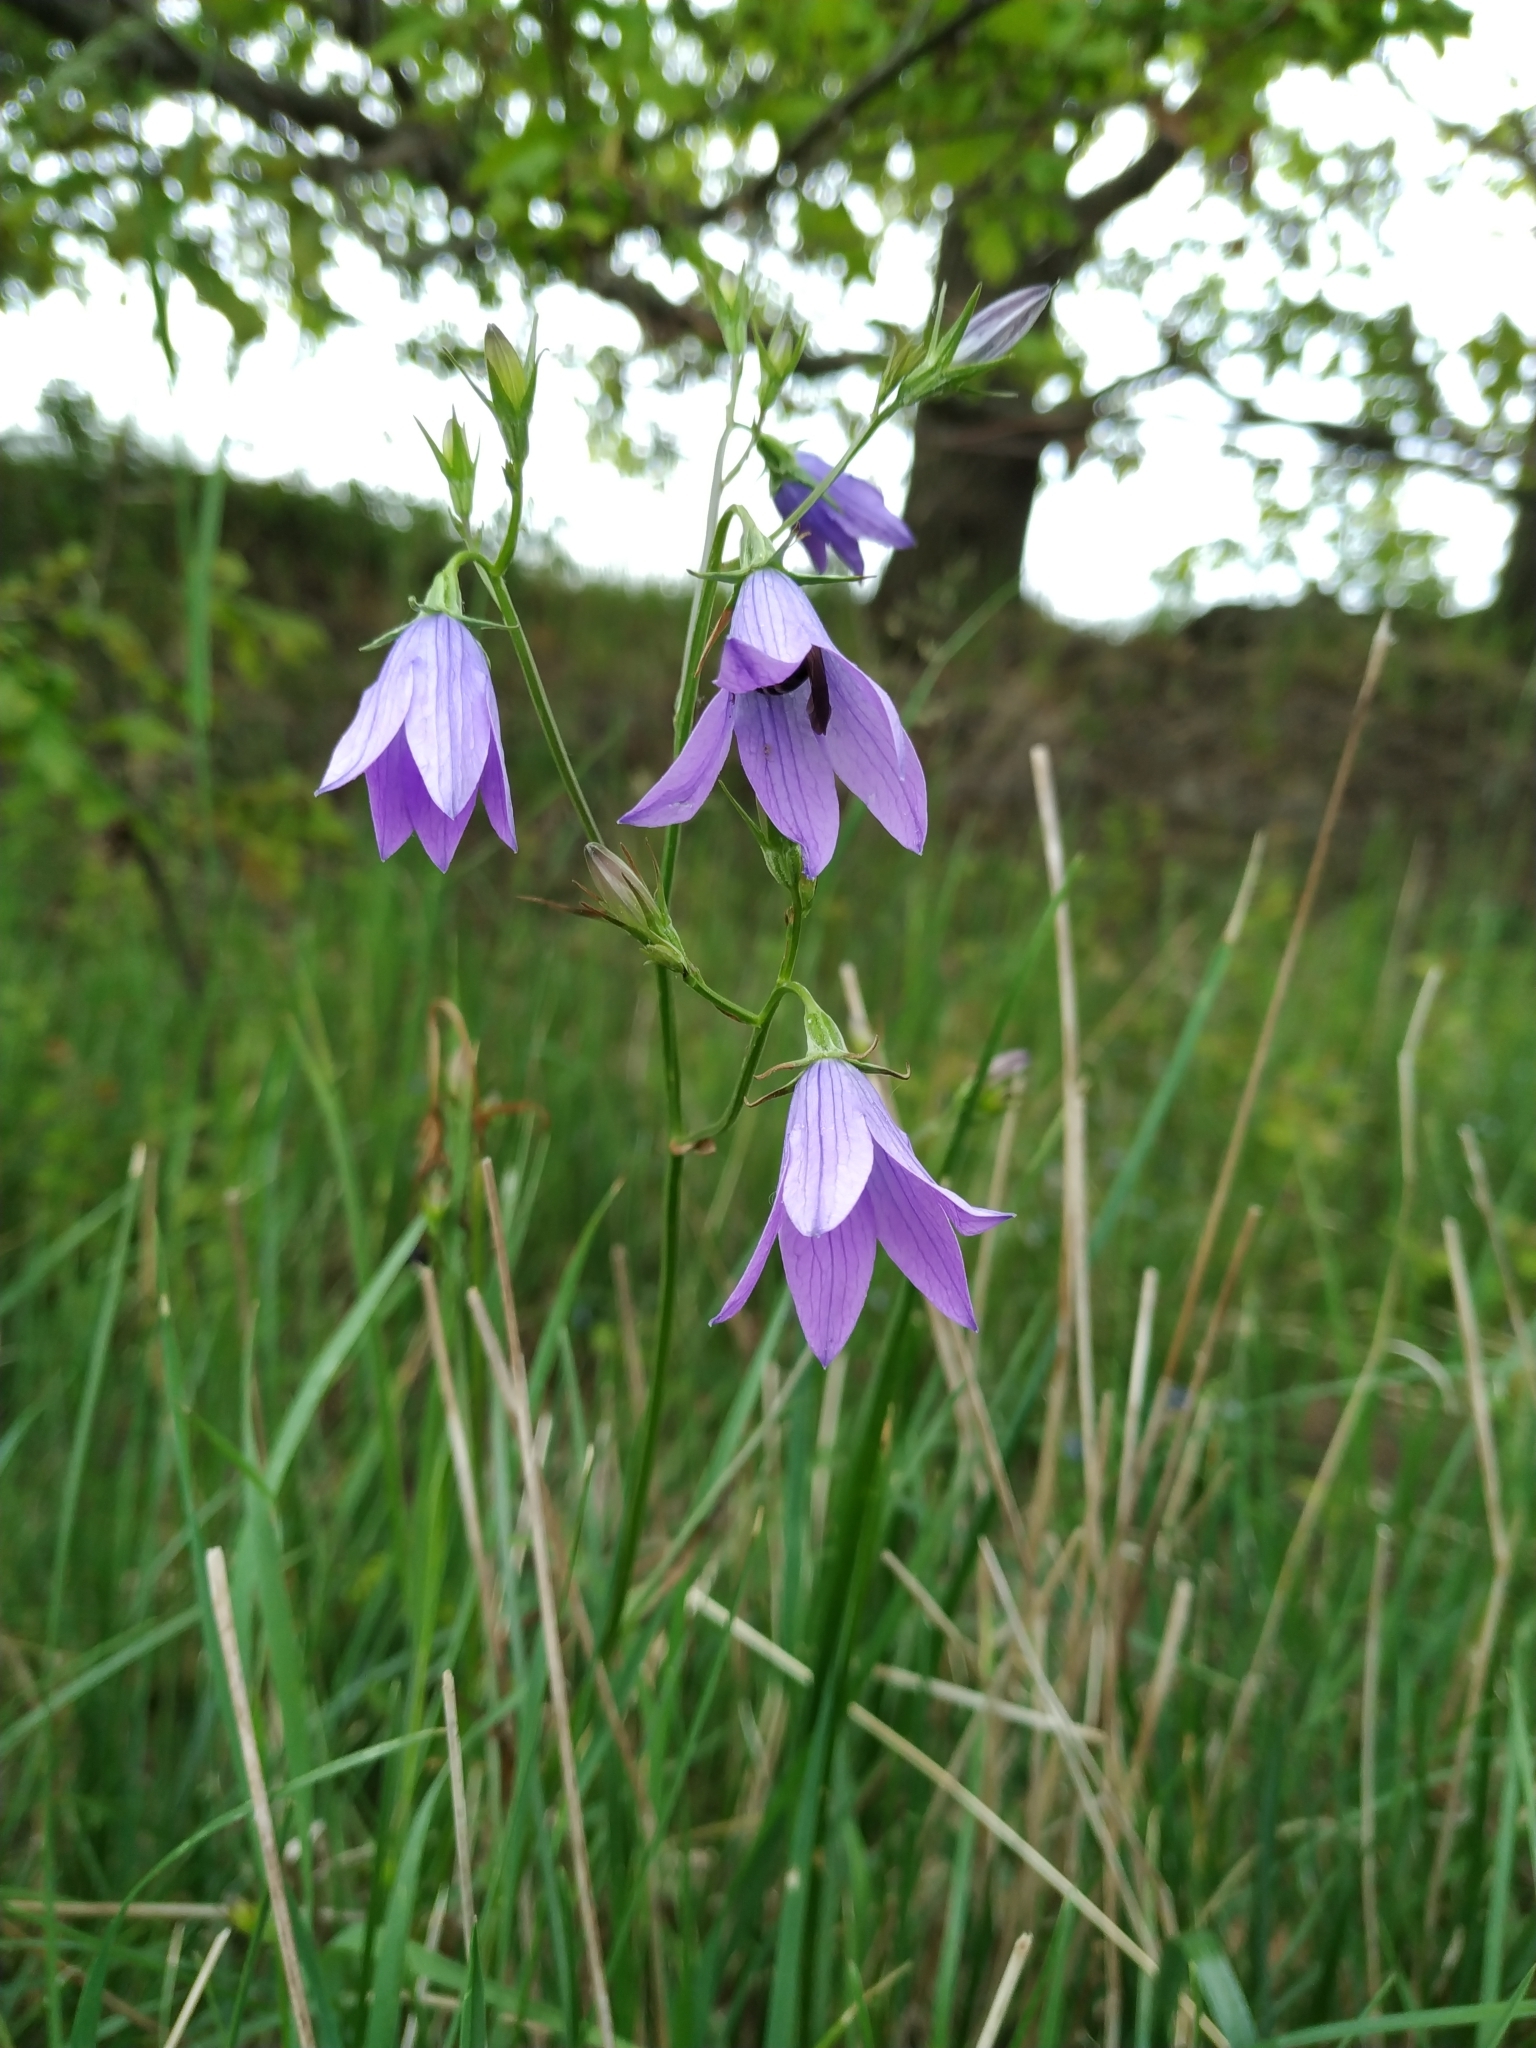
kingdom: Plantae
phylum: Tracheophyta
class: Magnoliopsida
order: Asterales
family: Campanulaceae
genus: Campanula
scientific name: Campanula patula
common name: Spreading bellflower
